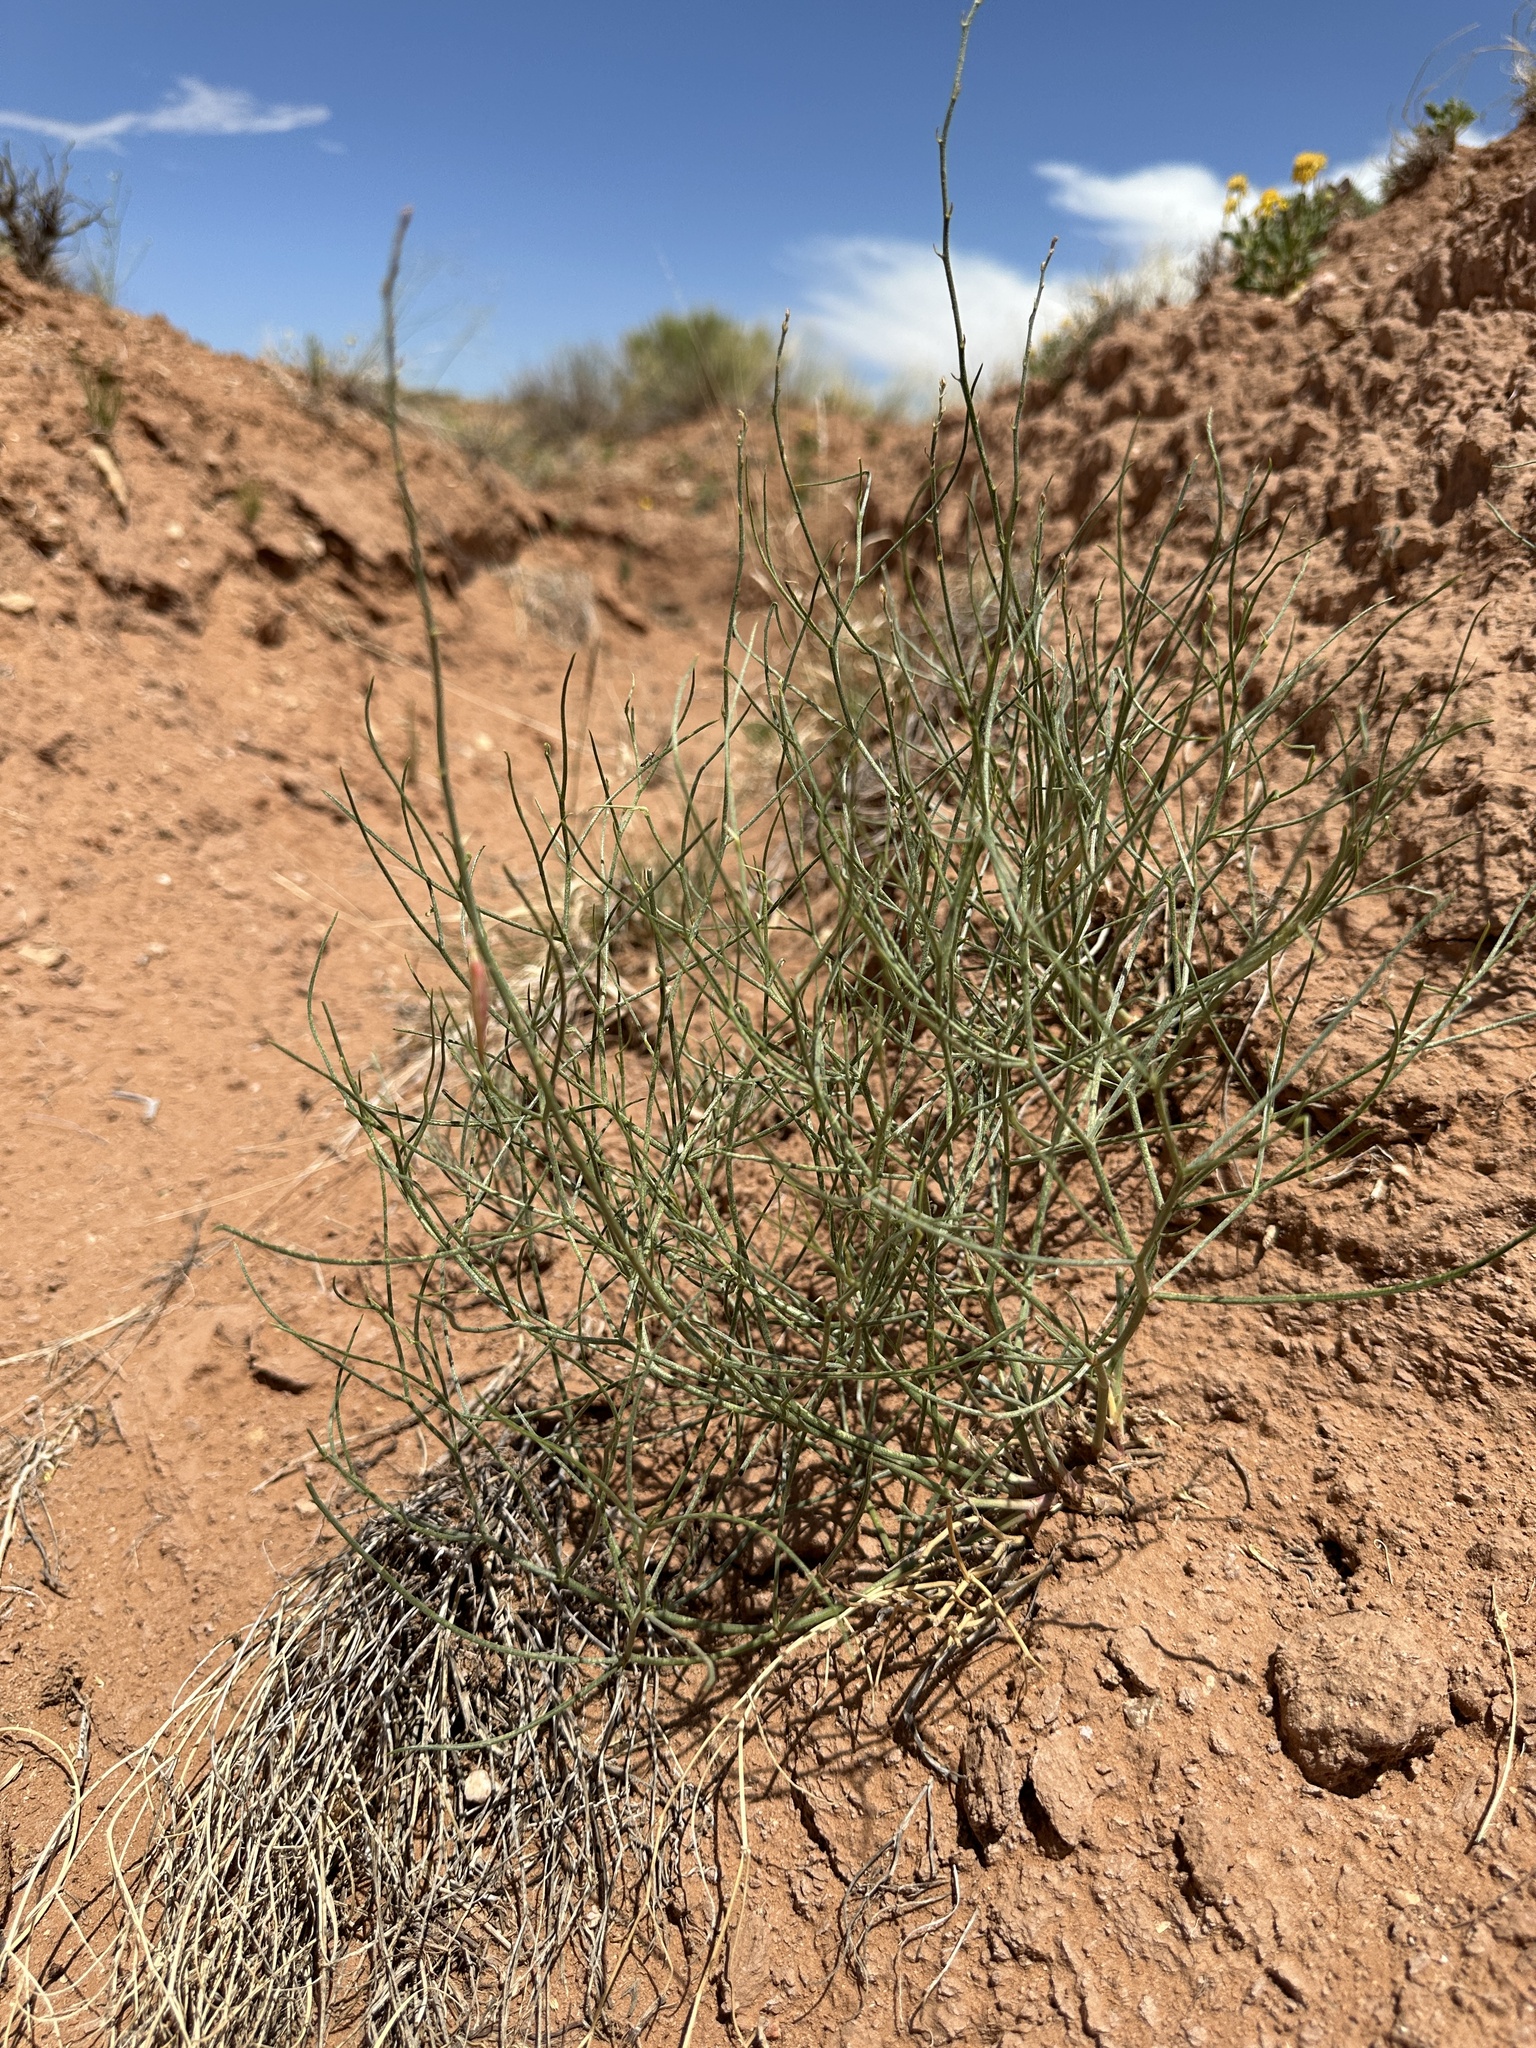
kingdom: Plantae
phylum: Tracheophyta
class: Magnoliopsida
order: Fabales
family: Fabaceae
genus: Astragalus
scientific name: Astragalus episcopus
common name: Bishop's milk-vetch
